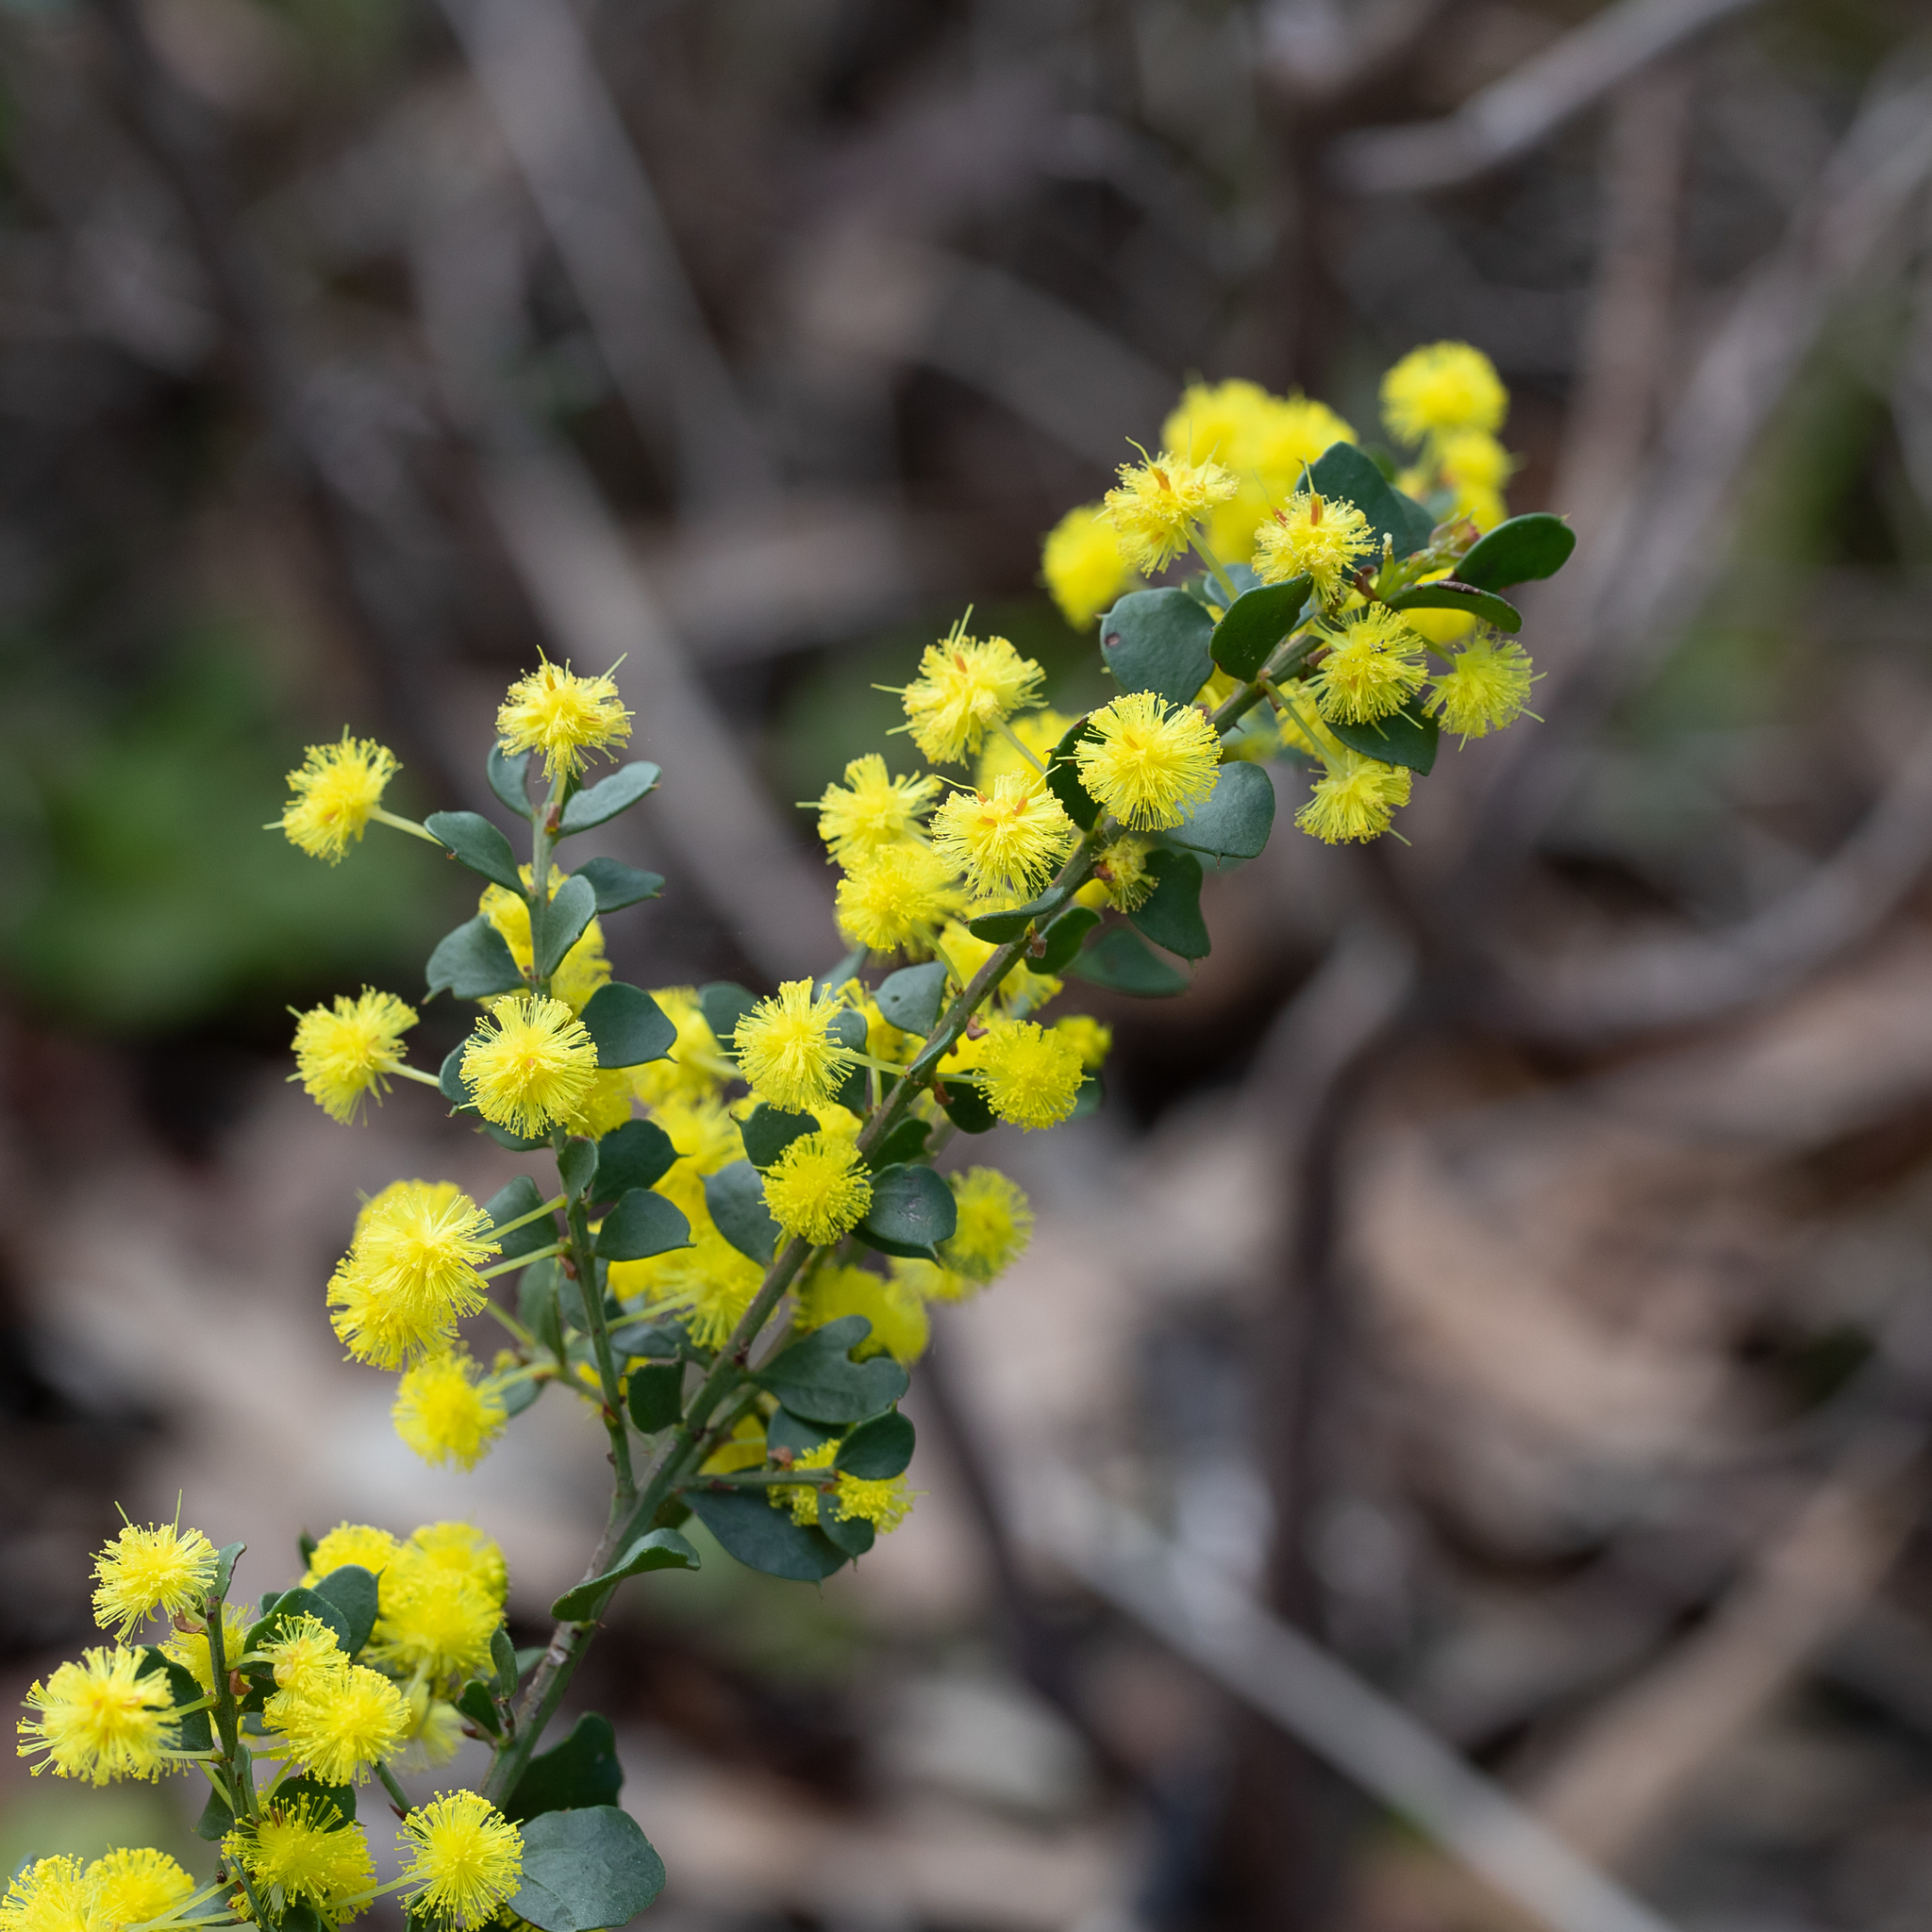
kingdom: Plantae
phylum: Tracheophyta
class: Magnoliopsida
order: Fabales
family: Fabaceae
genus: Acacia
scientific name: Acacia acinacea
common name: Gold-dust acacia
